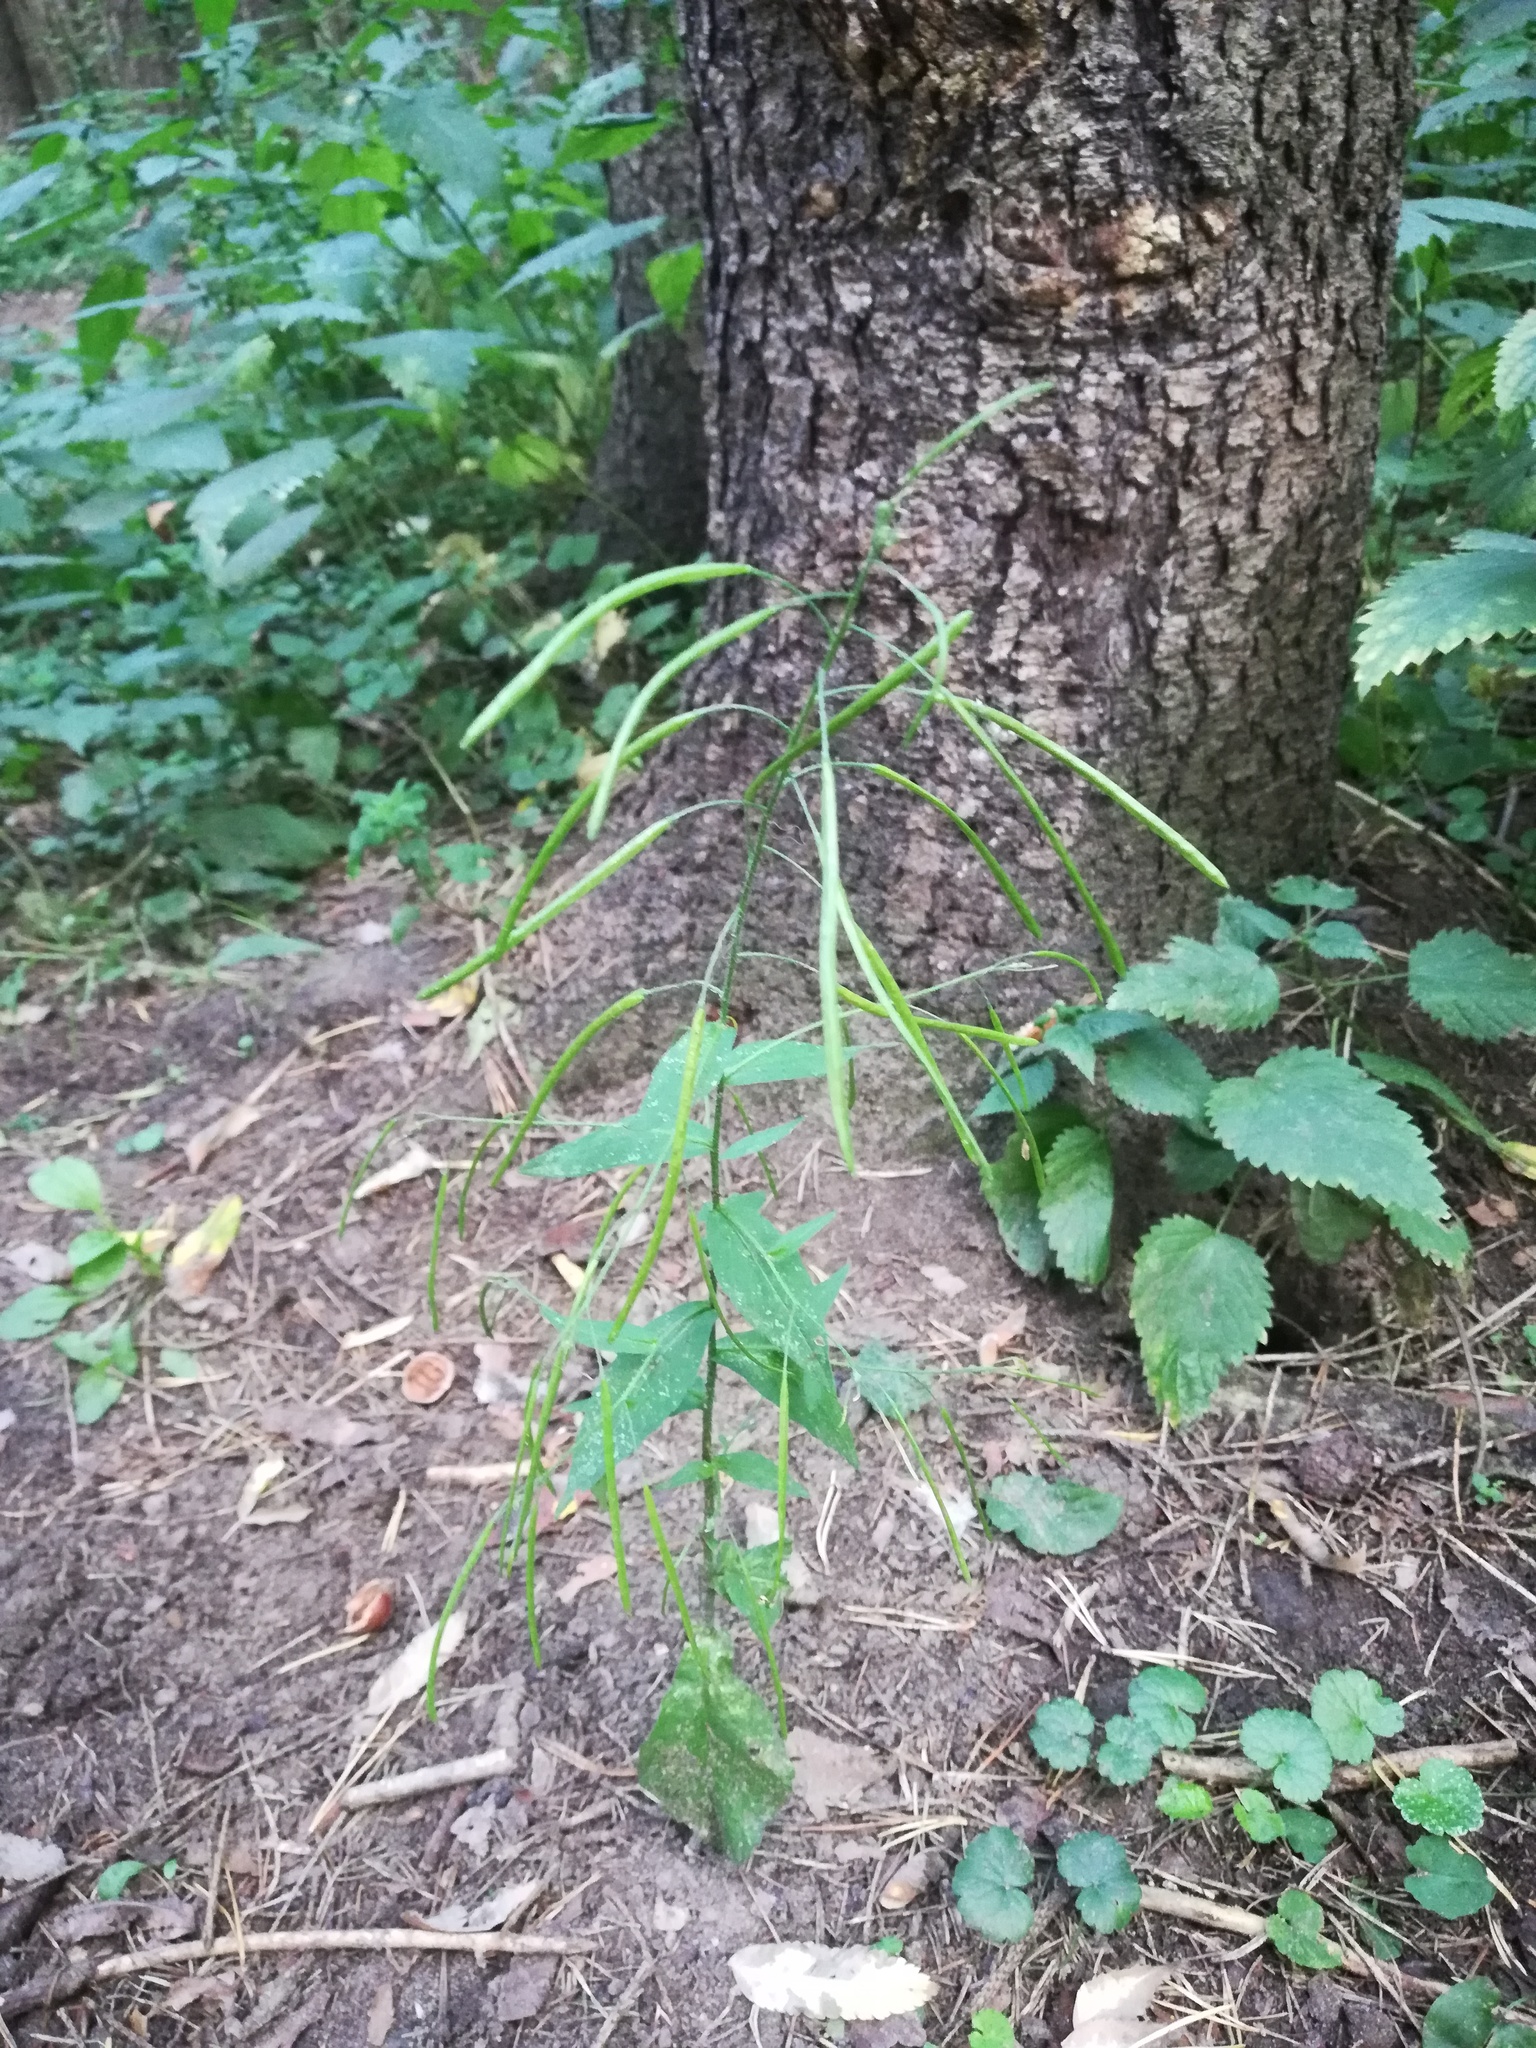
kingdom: Plantae
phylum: Tracheophyta
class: Magnoliopsida
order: Brassicales
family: Brassicaceae
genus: Catolobus
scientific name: Catolobus pendulus
